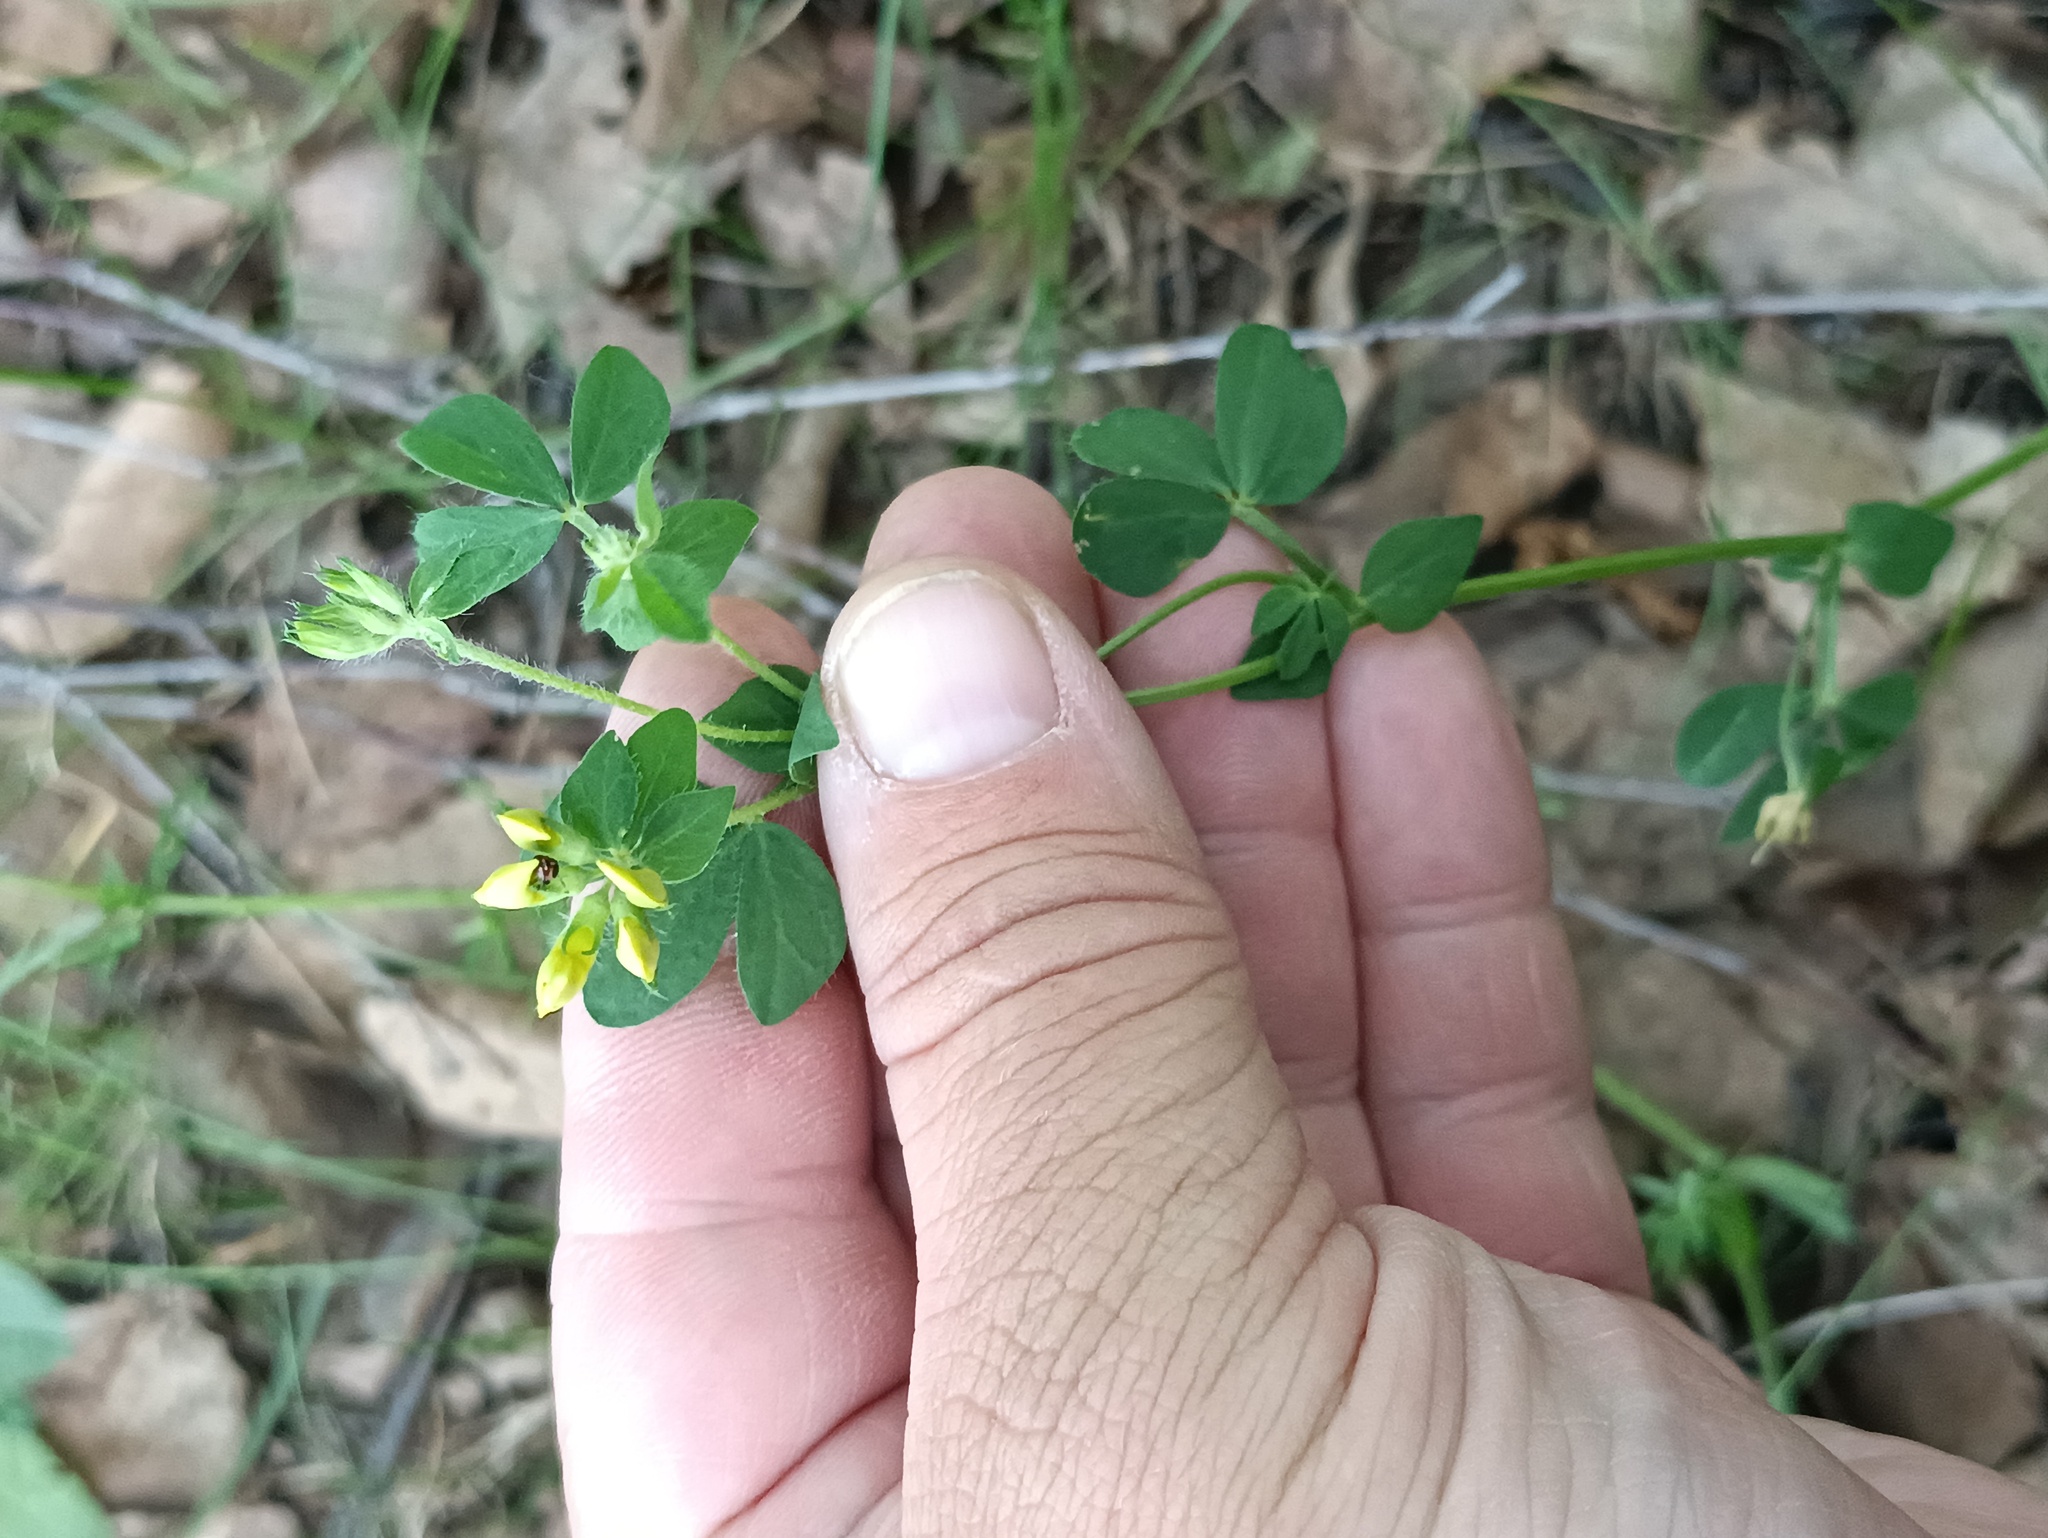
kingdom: Plantae
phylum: Tracheophyta
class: Magnoliopsida
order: Fabales
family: Fabaceae
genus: Lotus
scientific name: Lotus corniculatus
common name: Common bird's-foot-trefoil
